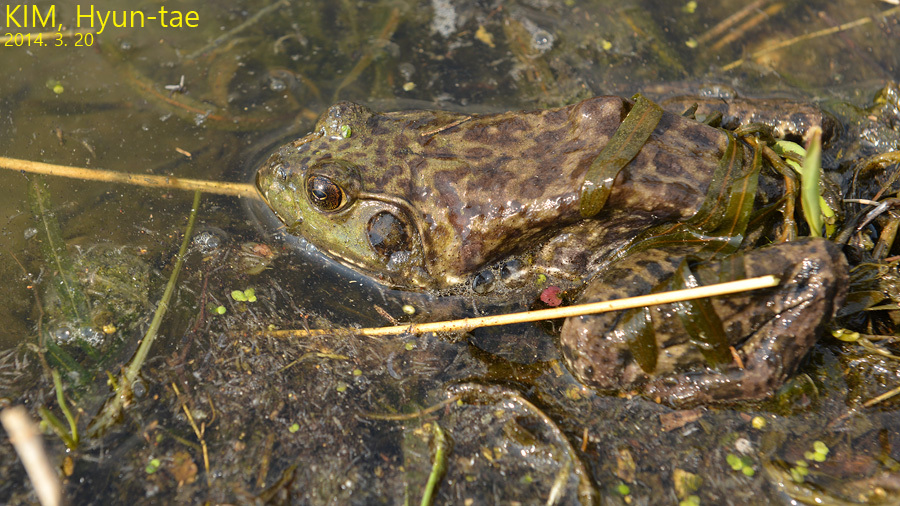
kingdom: Animalia
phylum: Chordata
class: Amphibia
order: Anura
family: Ranidae
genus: Lithobates
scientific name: Lithobates catesbeianus
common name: American bullfrog
